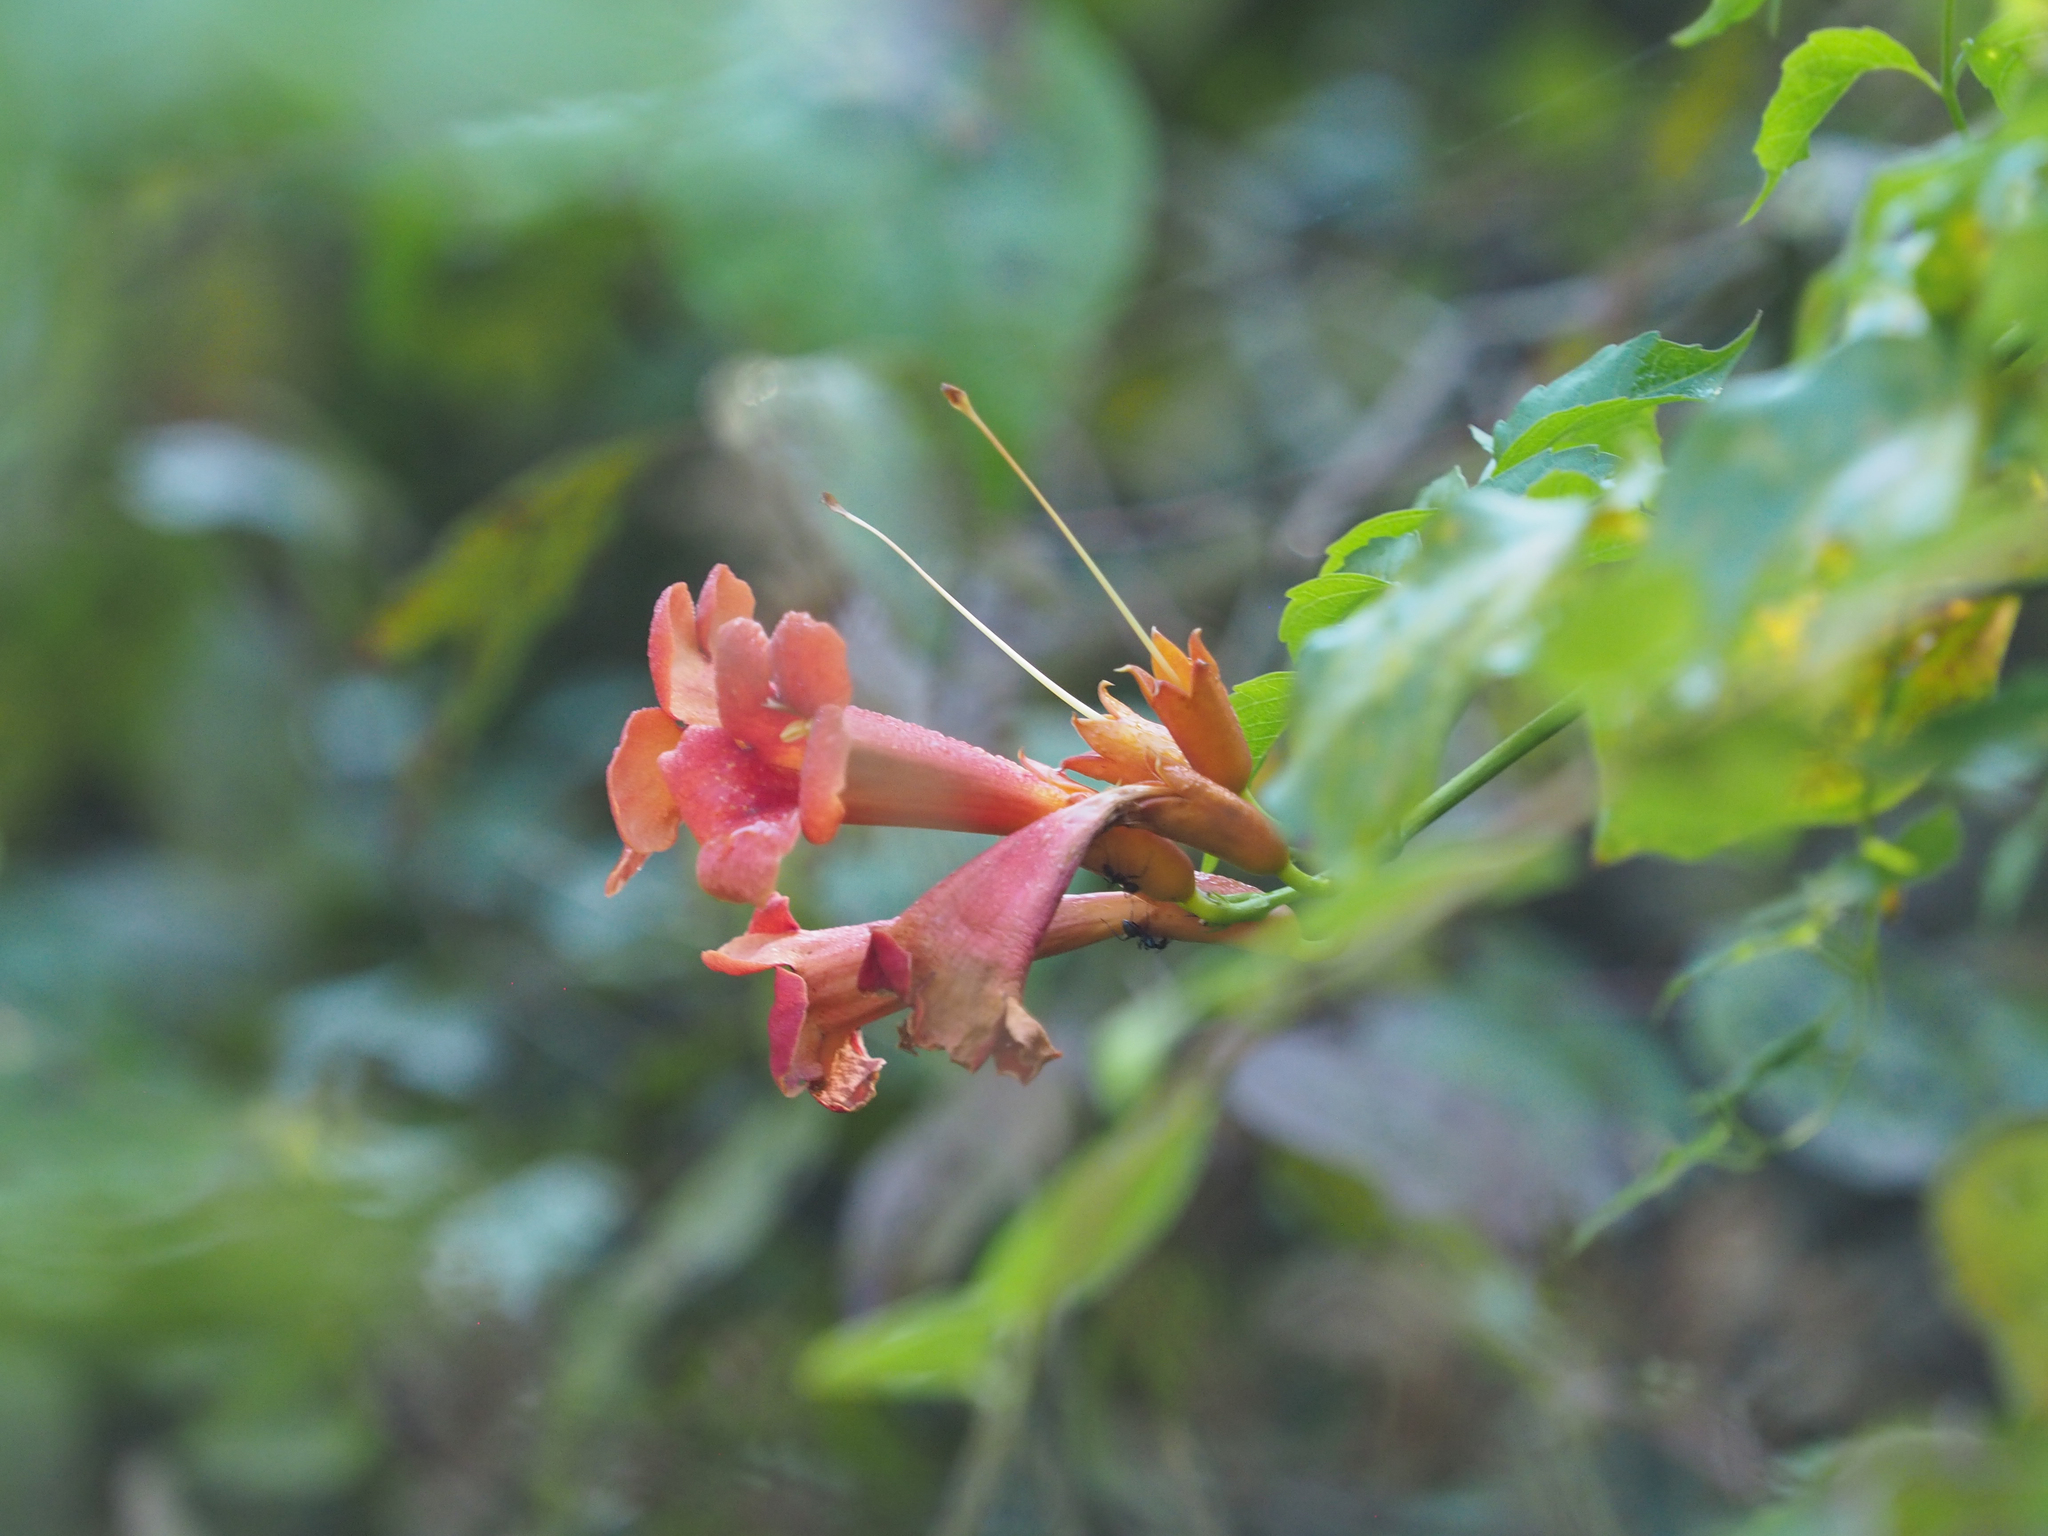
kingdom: Plantae
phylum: Tracheophyta
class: Magnoliopsida
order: Lamiales
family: Bignoniaceae
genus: Campsis
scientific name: Campsis radicans
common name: Trumpet-creeper
